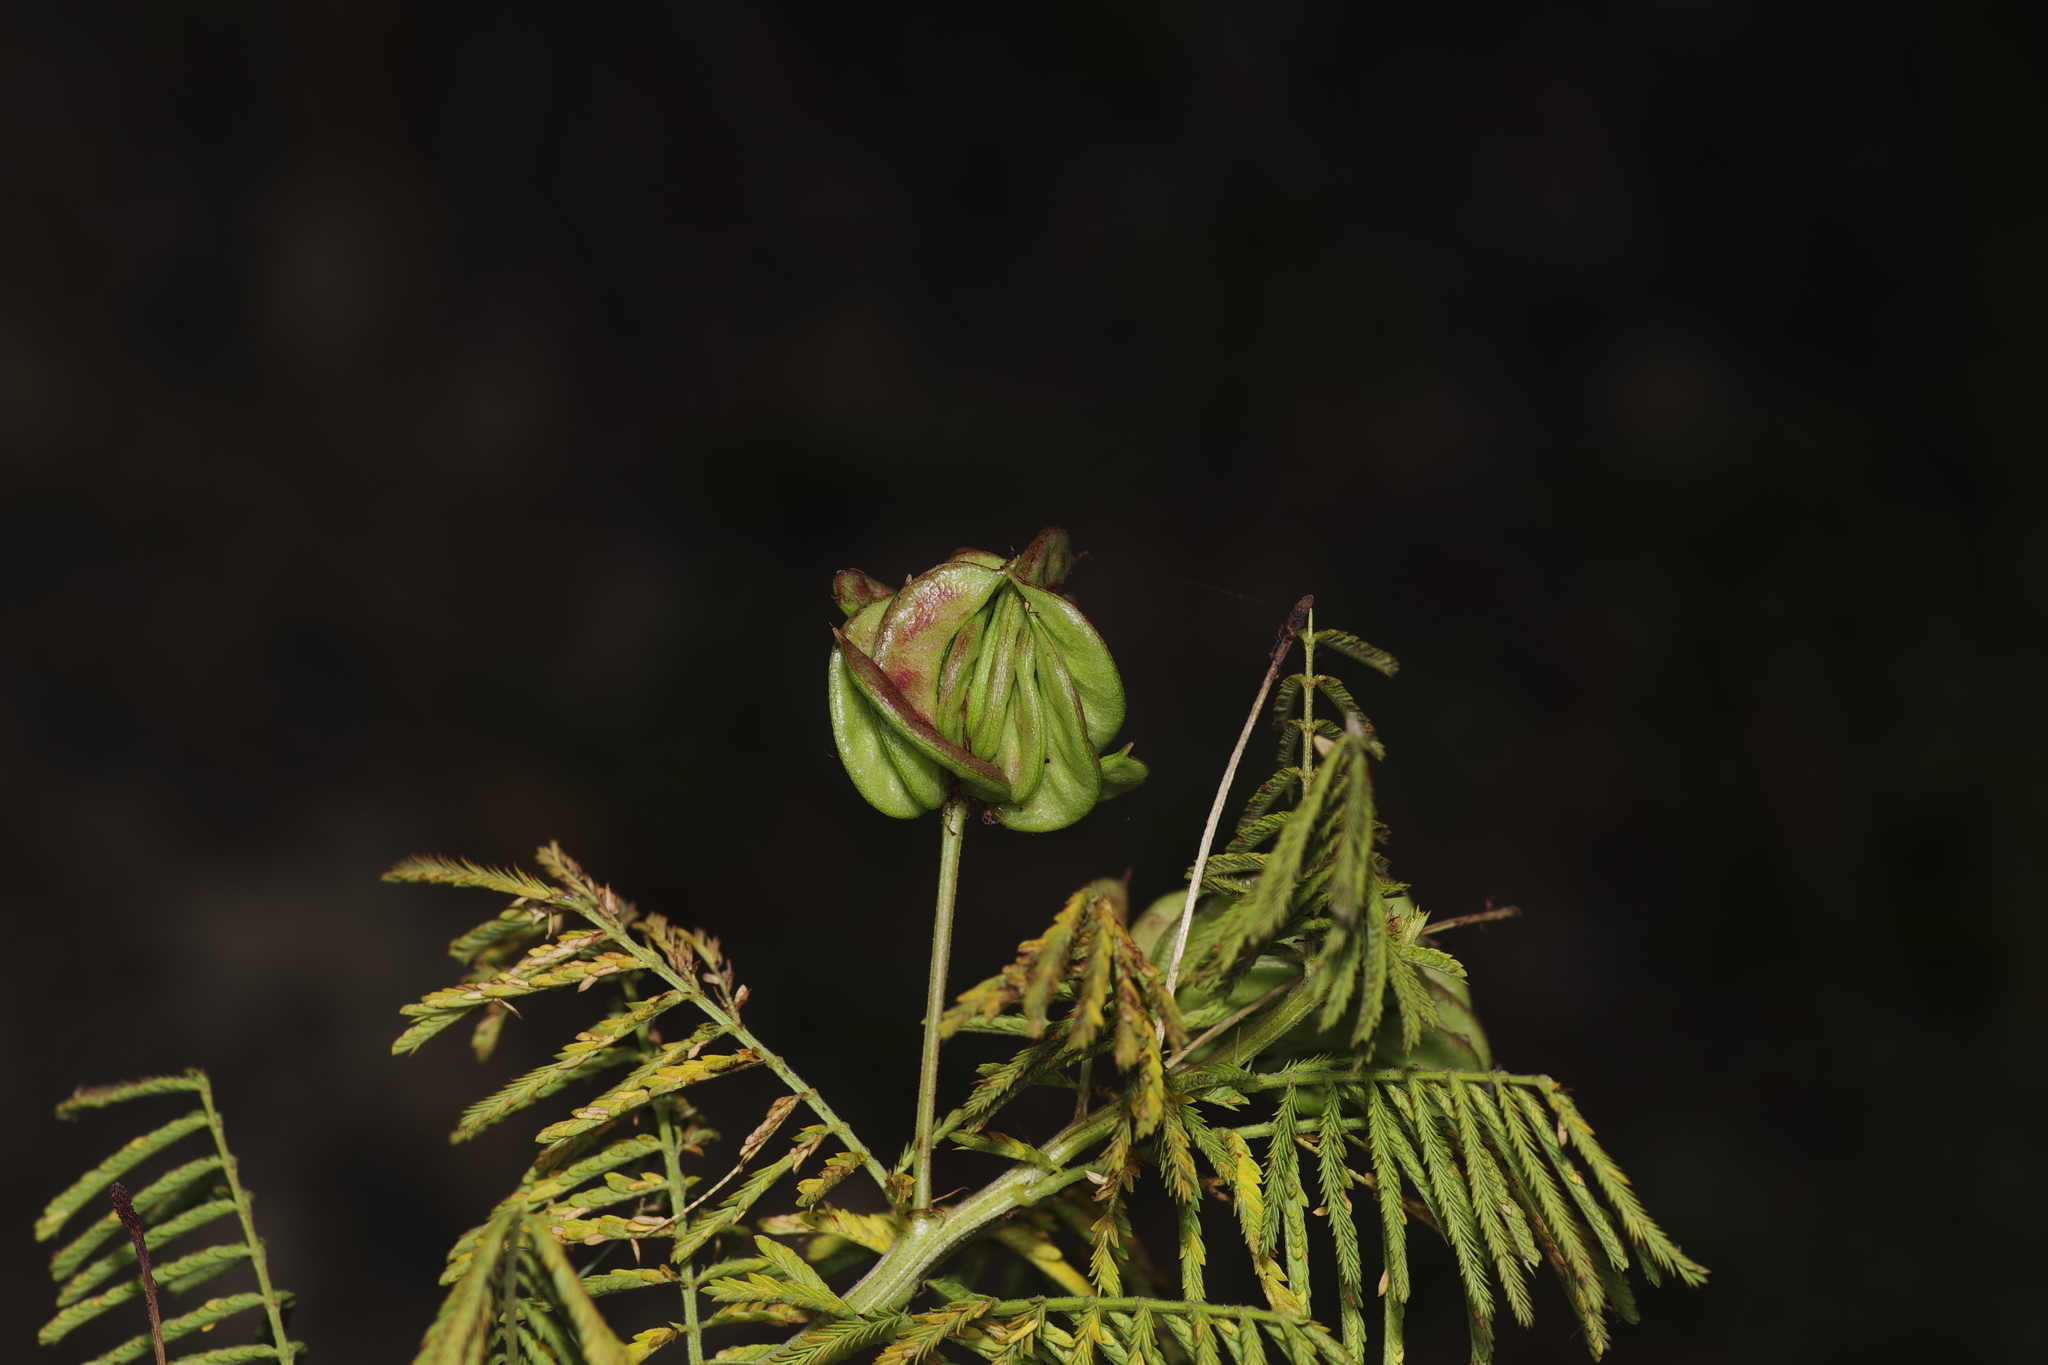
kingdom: Plantae
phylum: Tracheophyta
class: Magnoliopsida
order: Fabales
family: Fabaceae
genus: Desmanthus
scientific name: Desmanthus illinoensis
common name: Illinois bundle-flower
